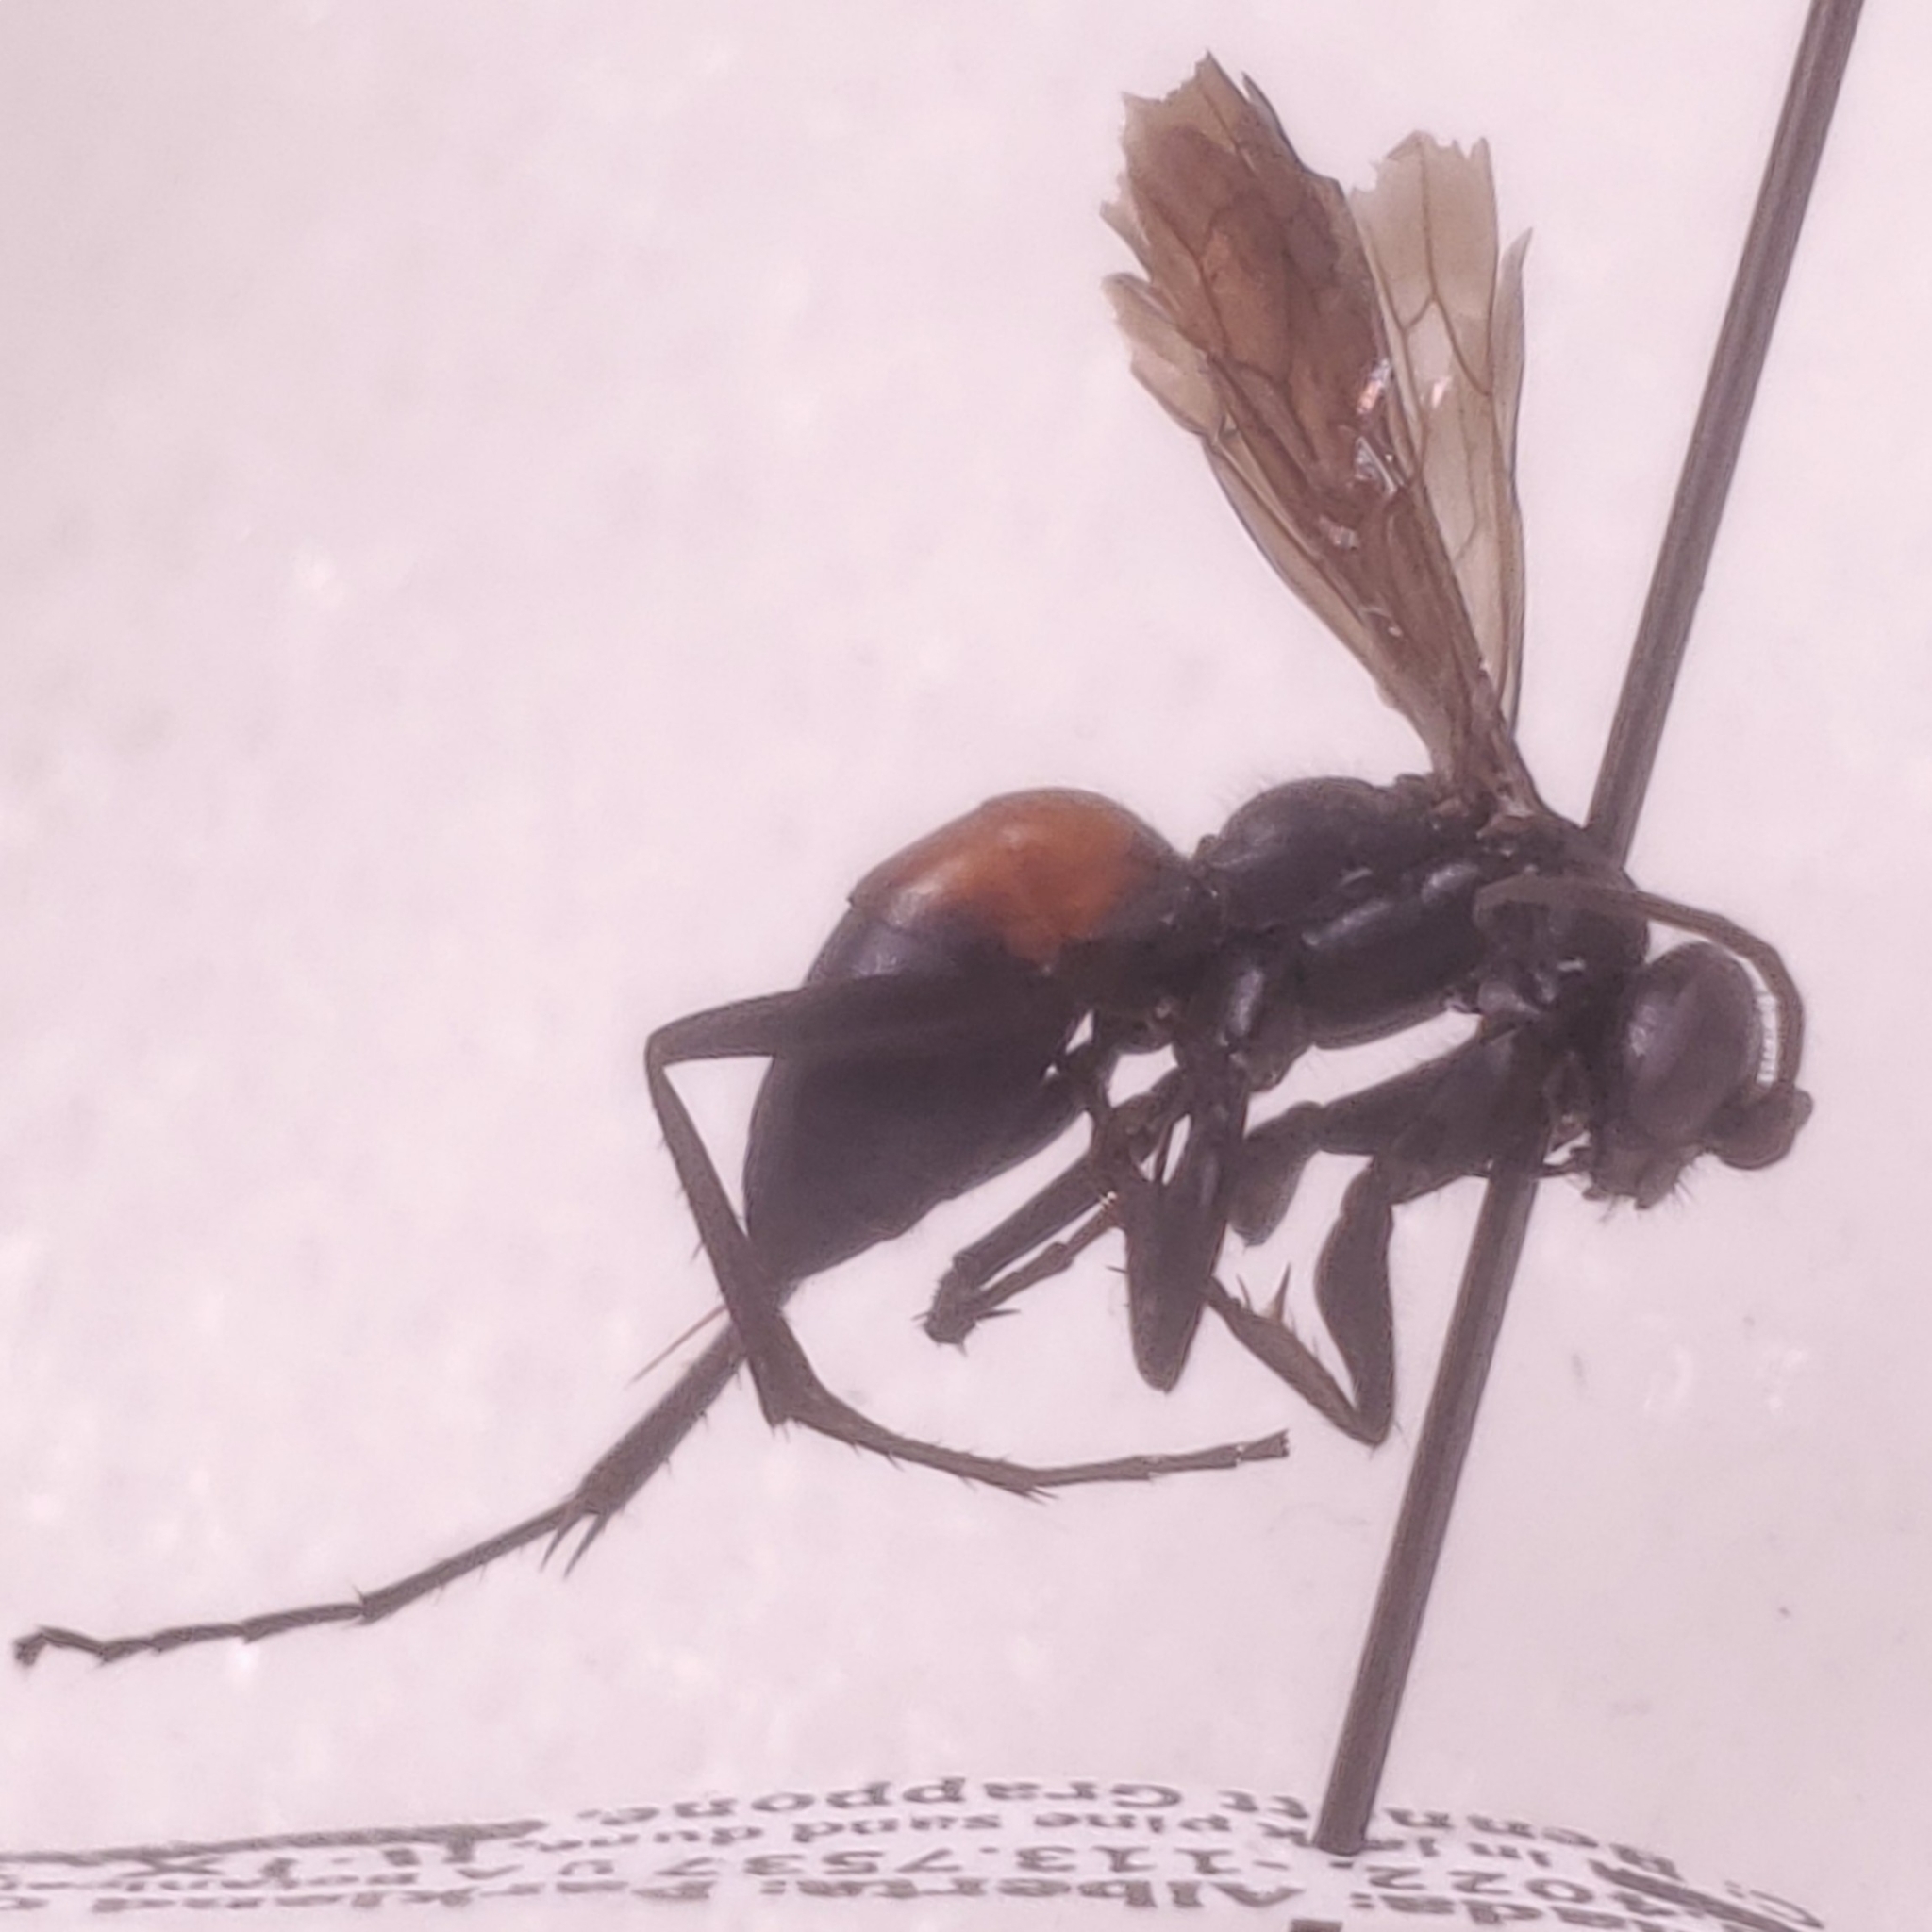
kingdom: Animalia
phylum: Arthropoda
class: Insecta
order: Hymenoptera
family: Pompilidae
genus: Arachnospila
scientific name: Arachnospila fumipennis
